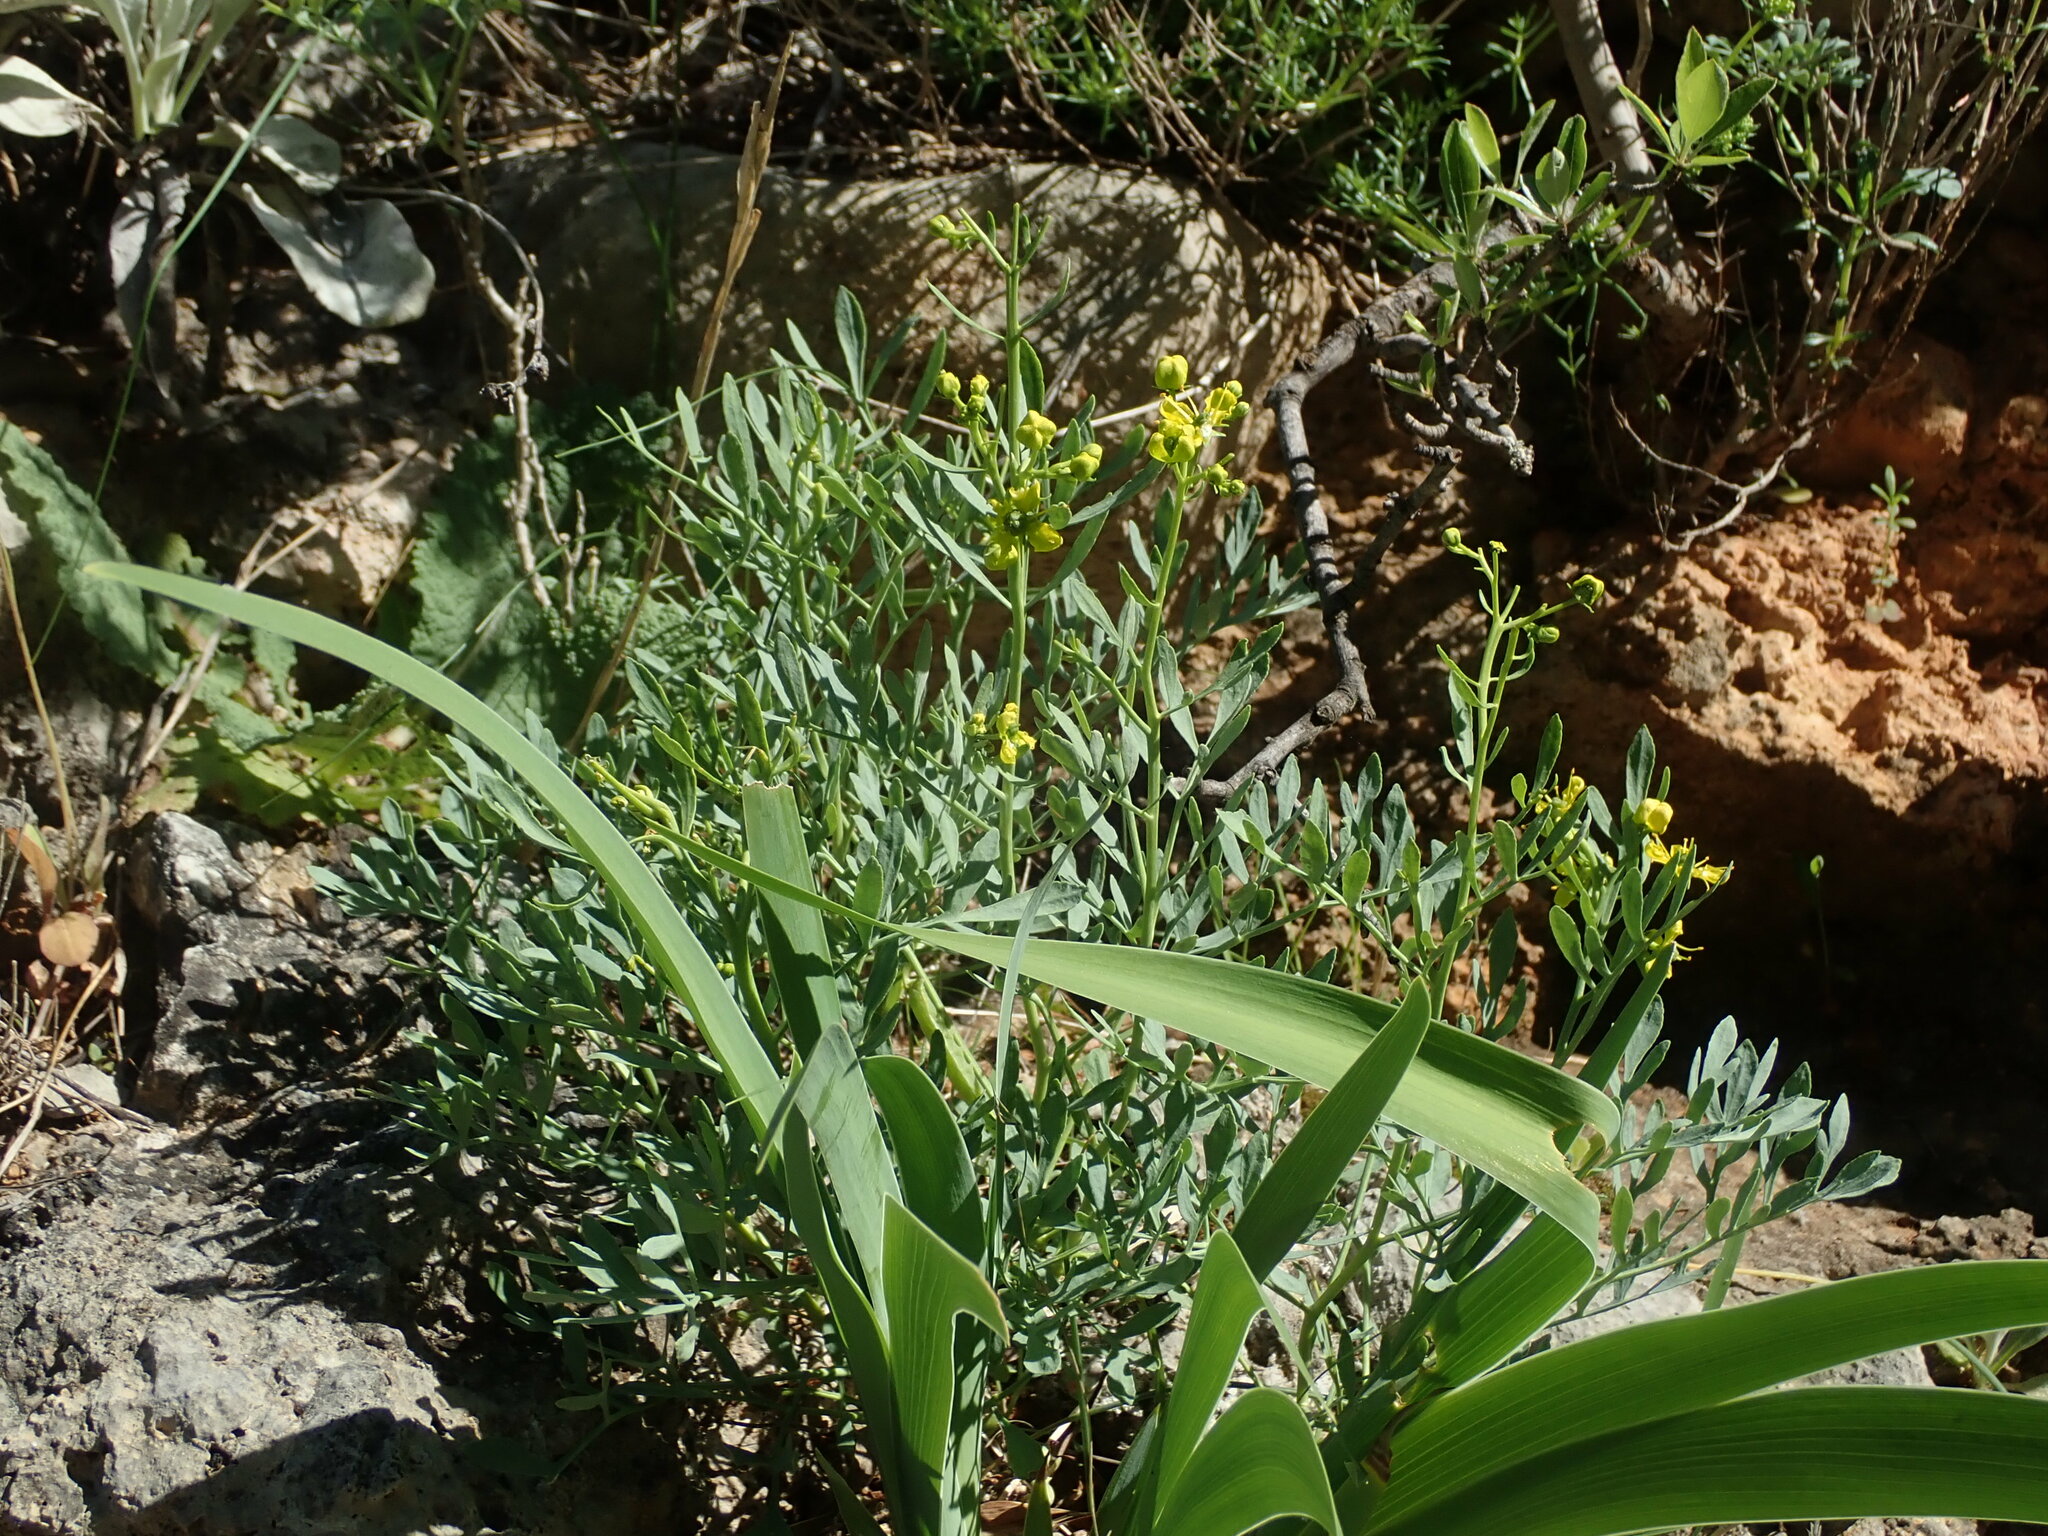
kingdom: Plantae
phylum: Tracheophyta
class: Magnoliopsida
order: Sapindales
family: Rutaceae
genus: Ruta
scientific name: Ruta graveolens
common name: Common rue
